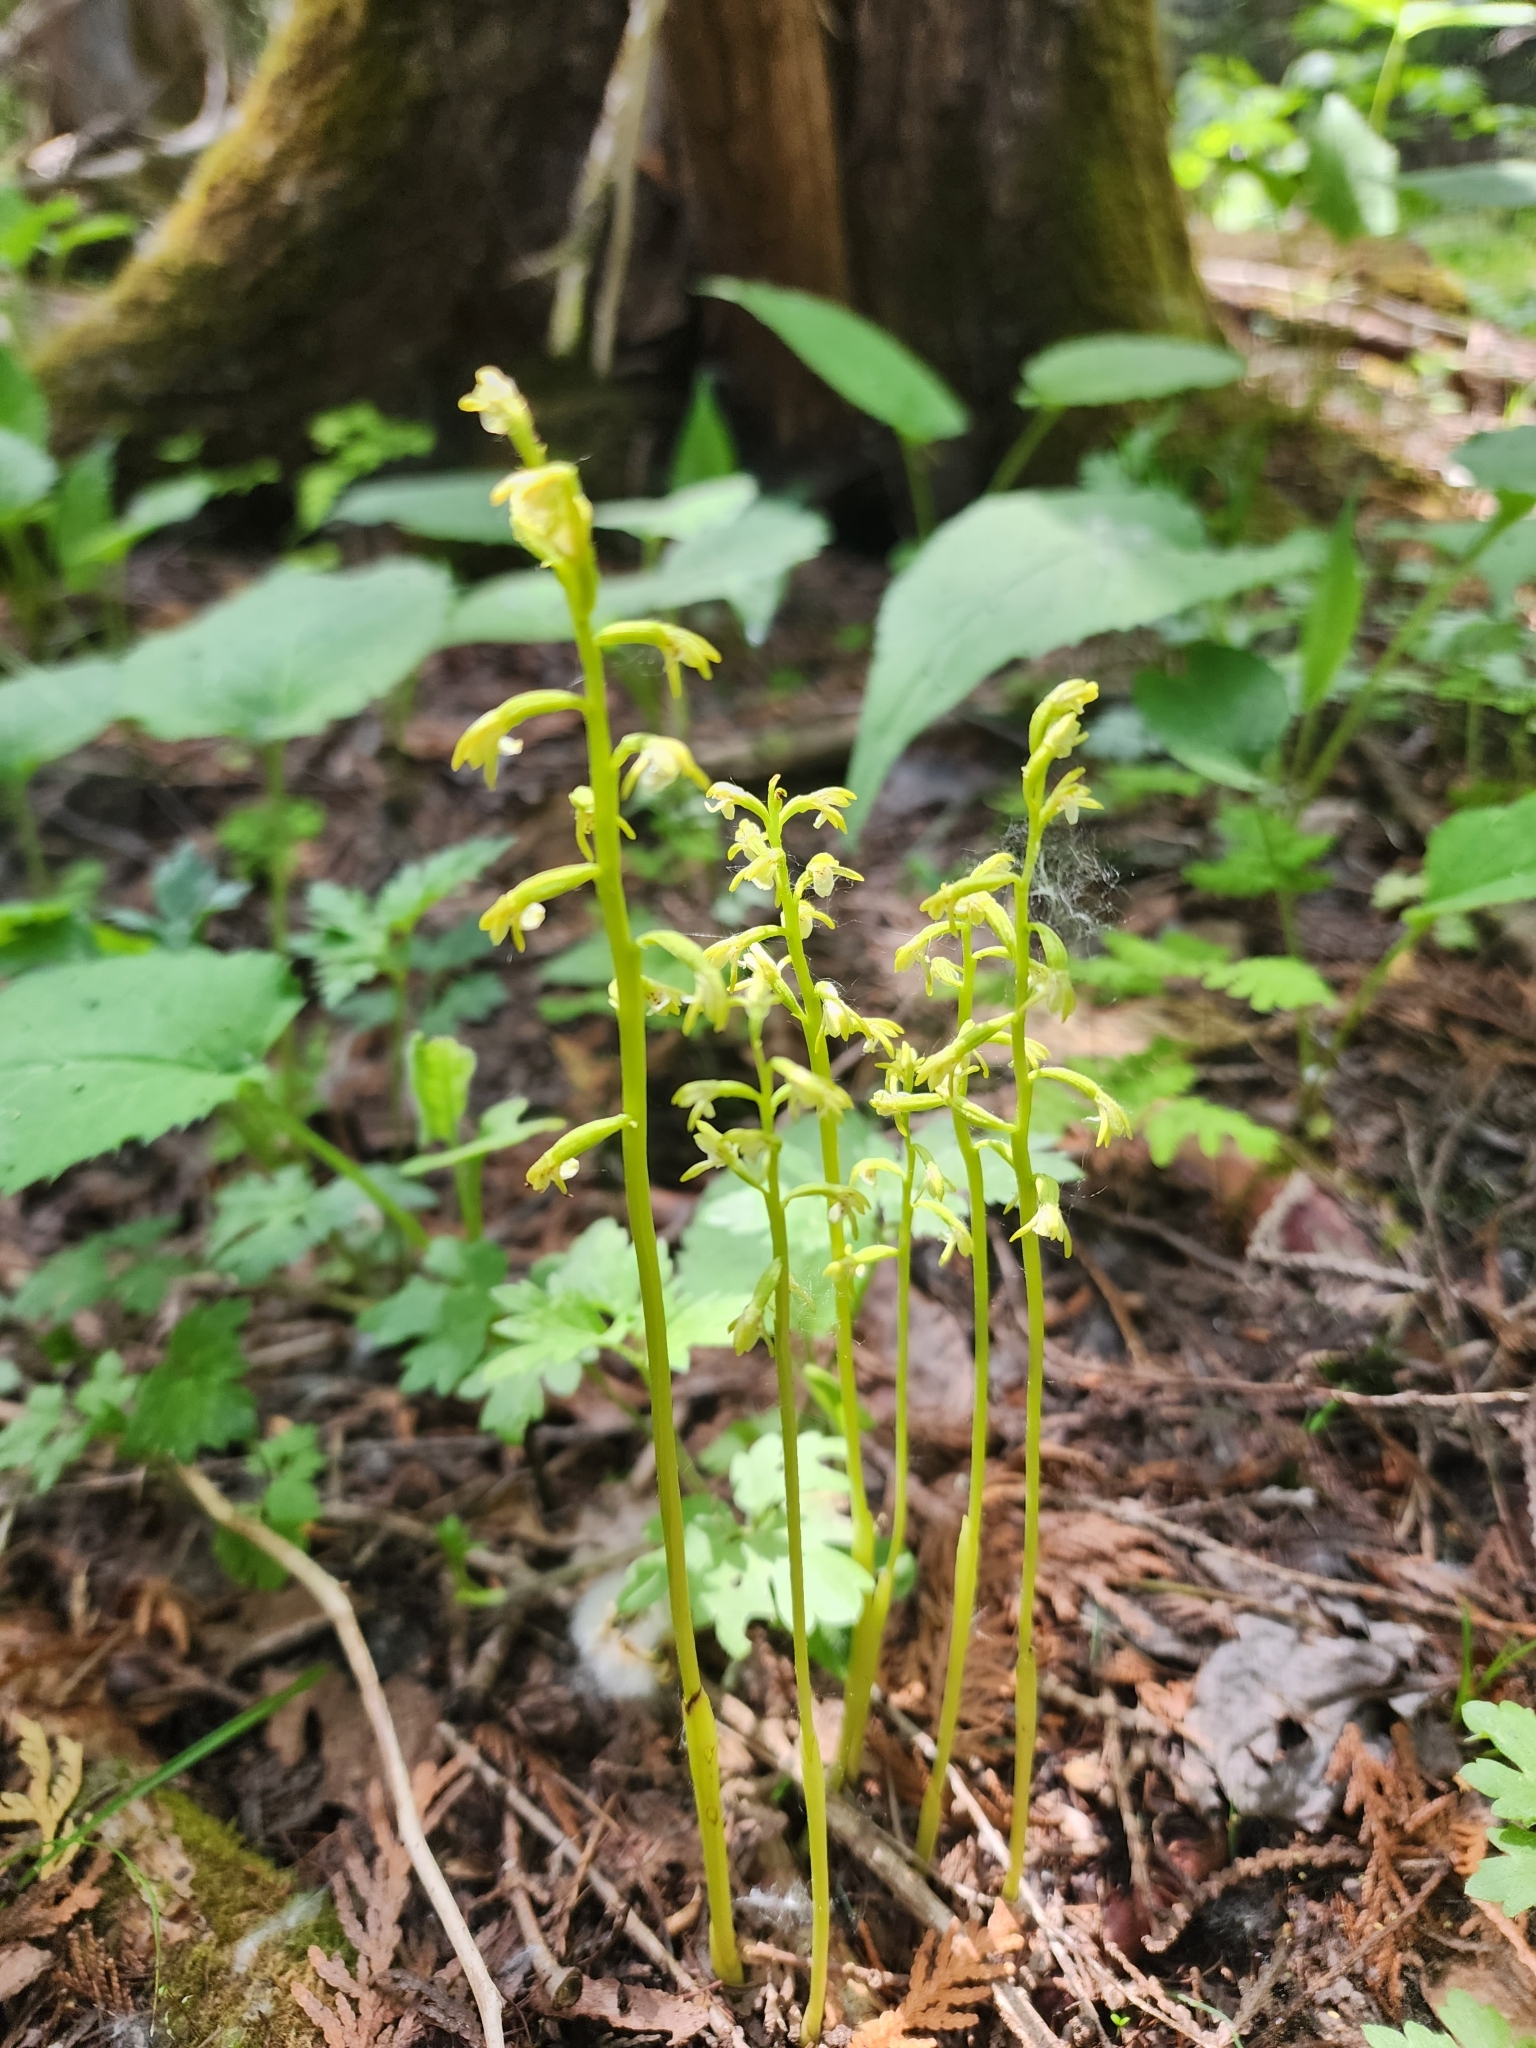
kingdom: Plantae
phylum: Tracheophyta
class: Liliopsida
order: Asparagales
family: Orchidaceae
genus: Corallorhiza
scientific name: Corallorhiza trifida
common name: Yellow coralroot
